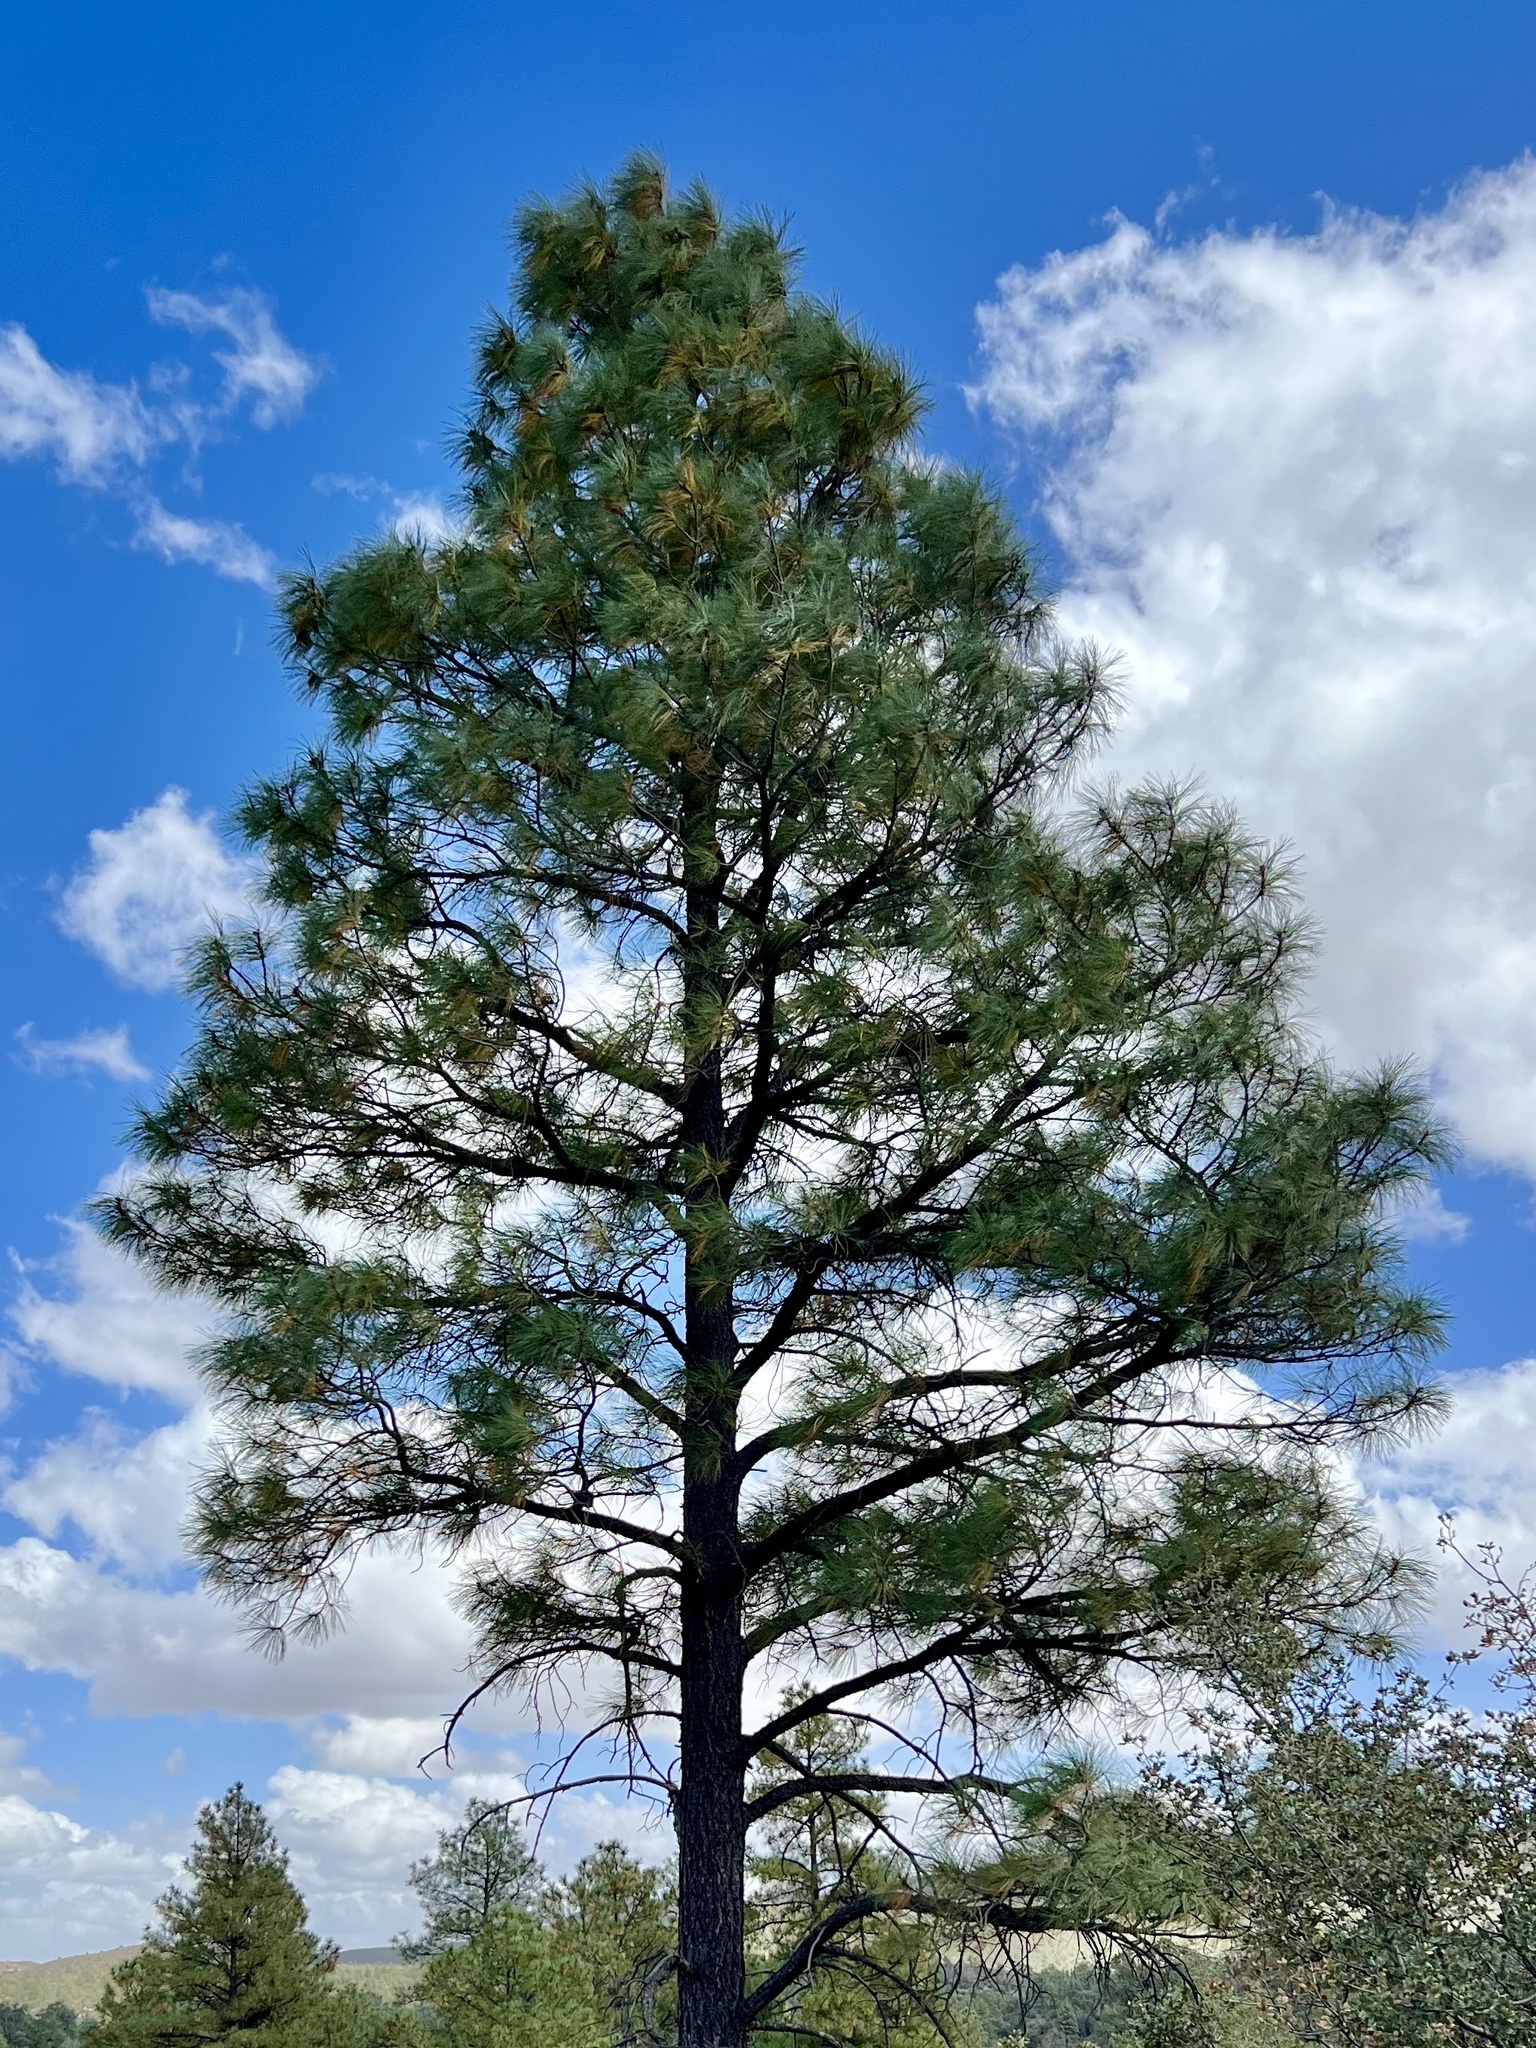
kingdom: Plantae
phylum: Tracheophyta
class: Pinopsida
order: Pinales
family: Pinaceae
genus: Pinus
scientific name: Pinus ponderosa
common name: Western yellow-pine
